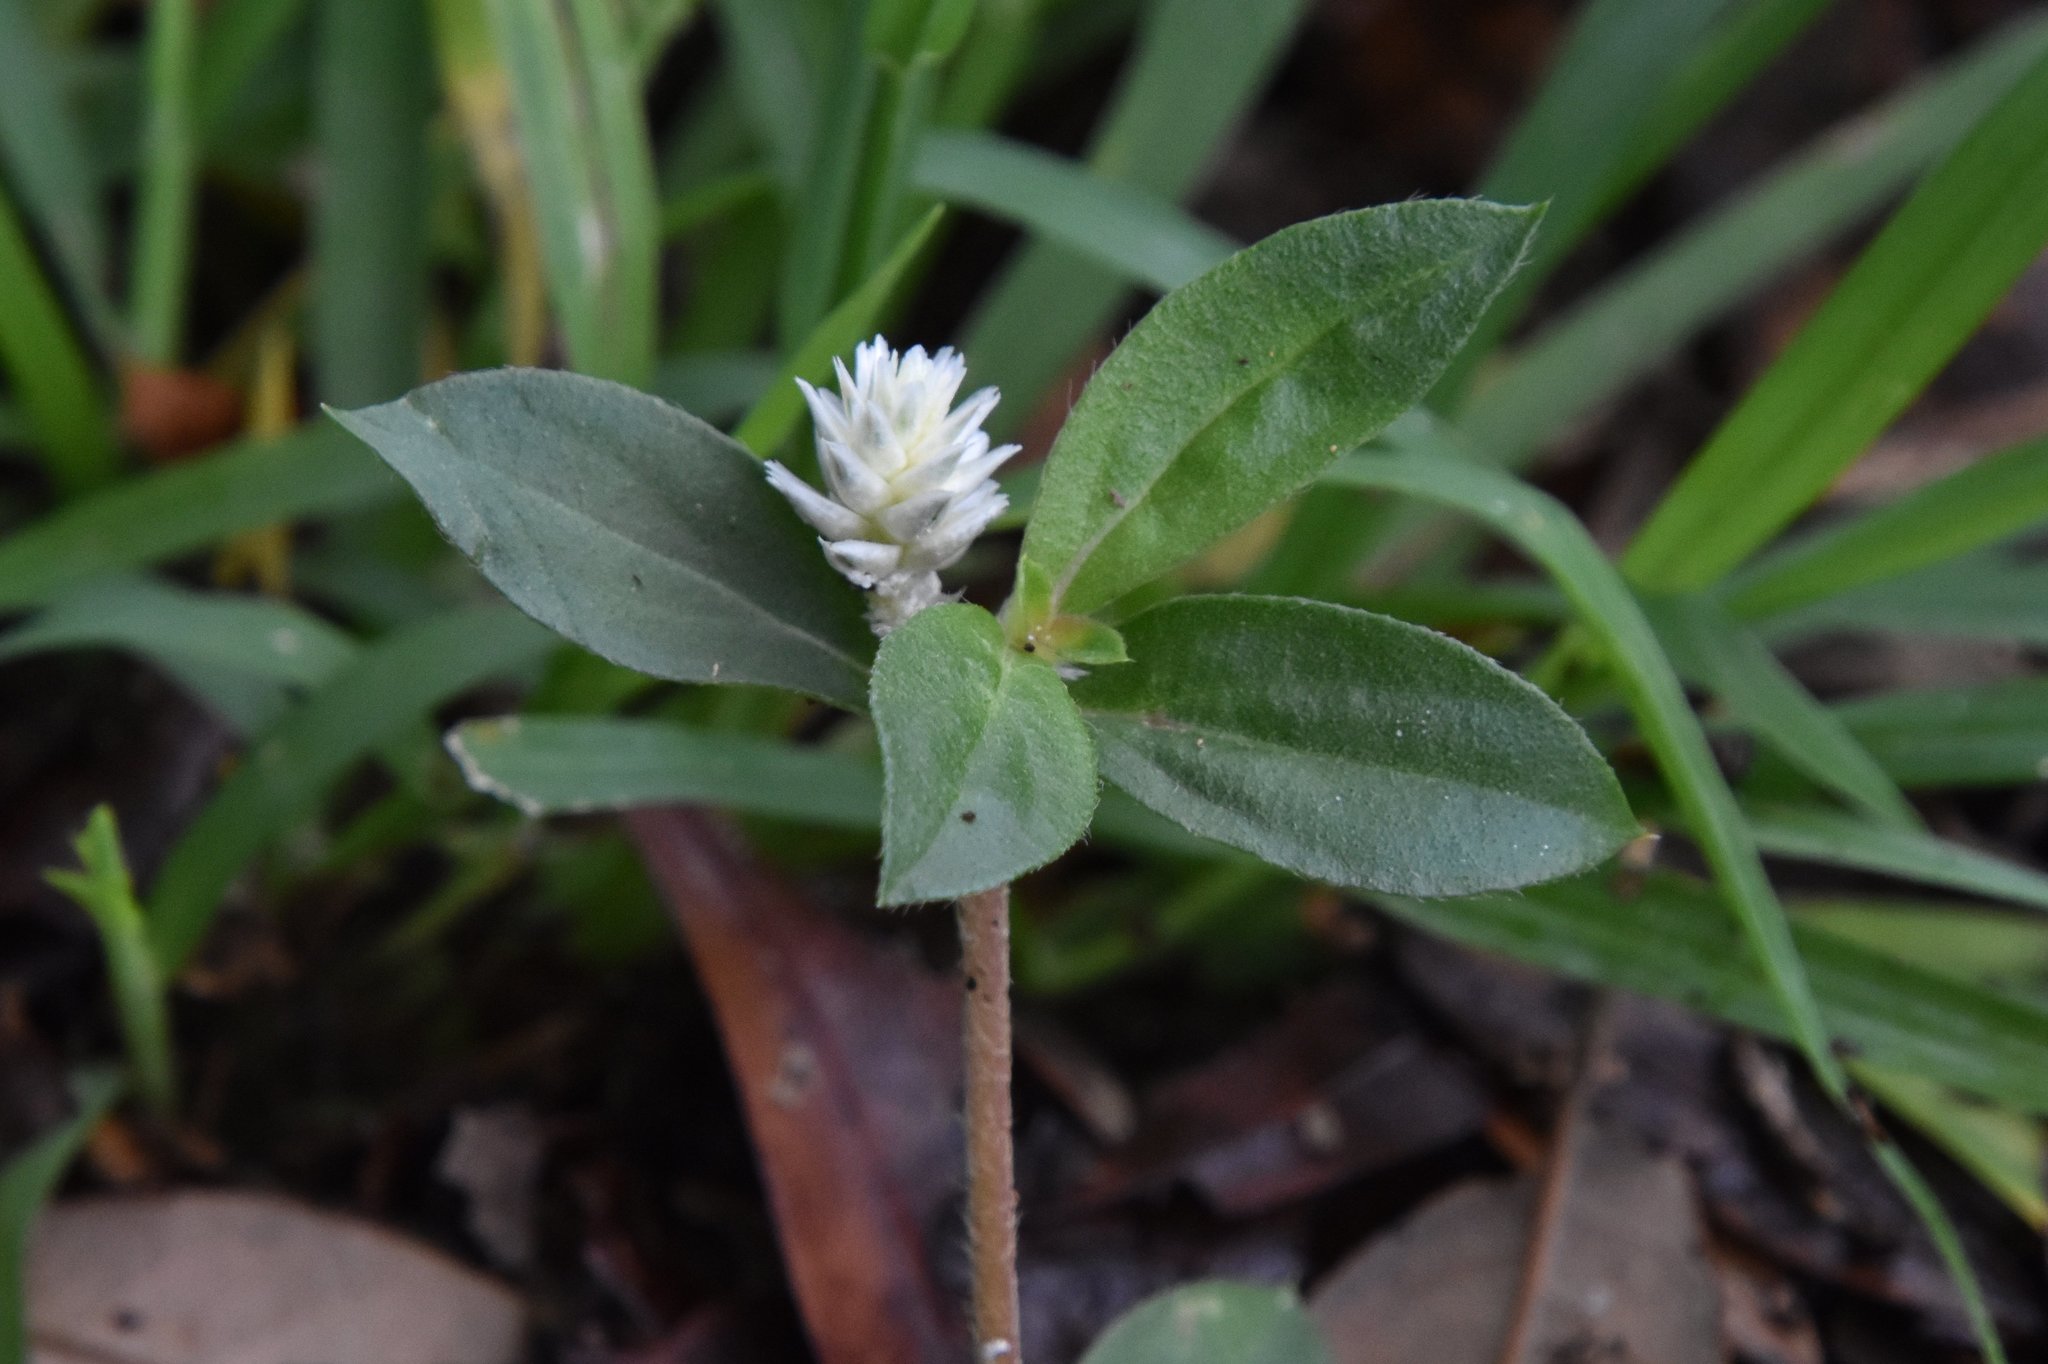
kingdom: Plantae
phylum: Tracheophyta
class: Magnoliopsida
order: Caryophyllales
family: Amaranthaceae
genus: Gomphrena
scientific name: Gomphrena serrata
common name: Arrasa con todo
